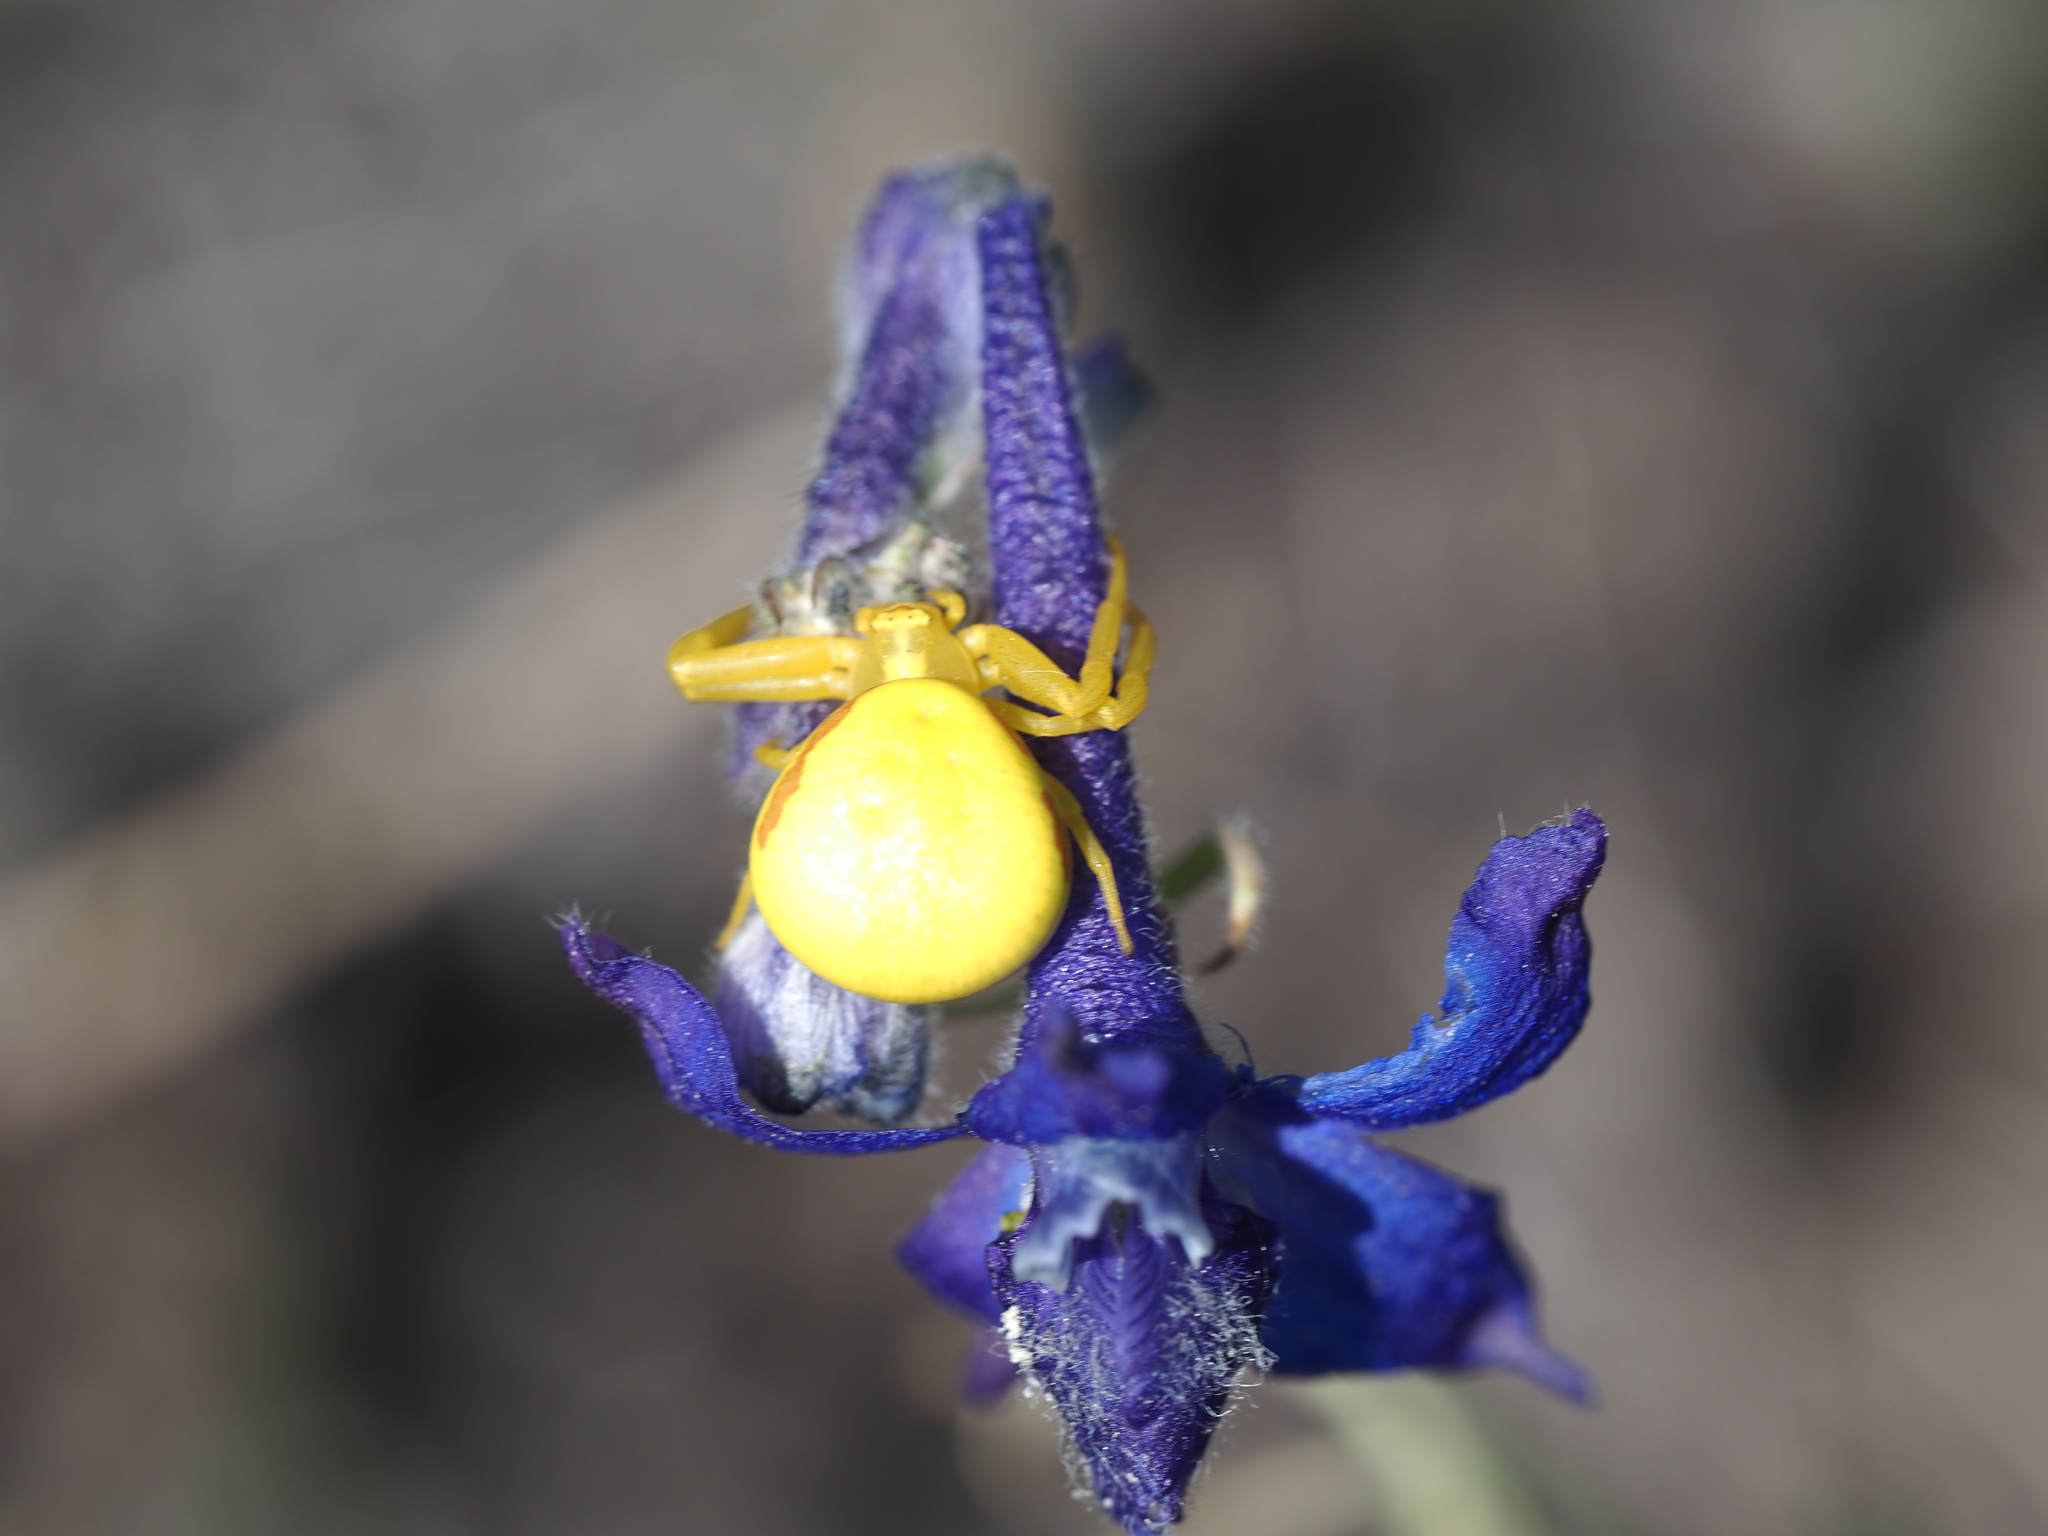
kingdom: Animalia
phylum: Arthropoda
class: Arachnida
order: Araneae
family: Thomisidae
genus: Misumena
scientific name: Misumena vatia
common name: Goldenrod crab spider
